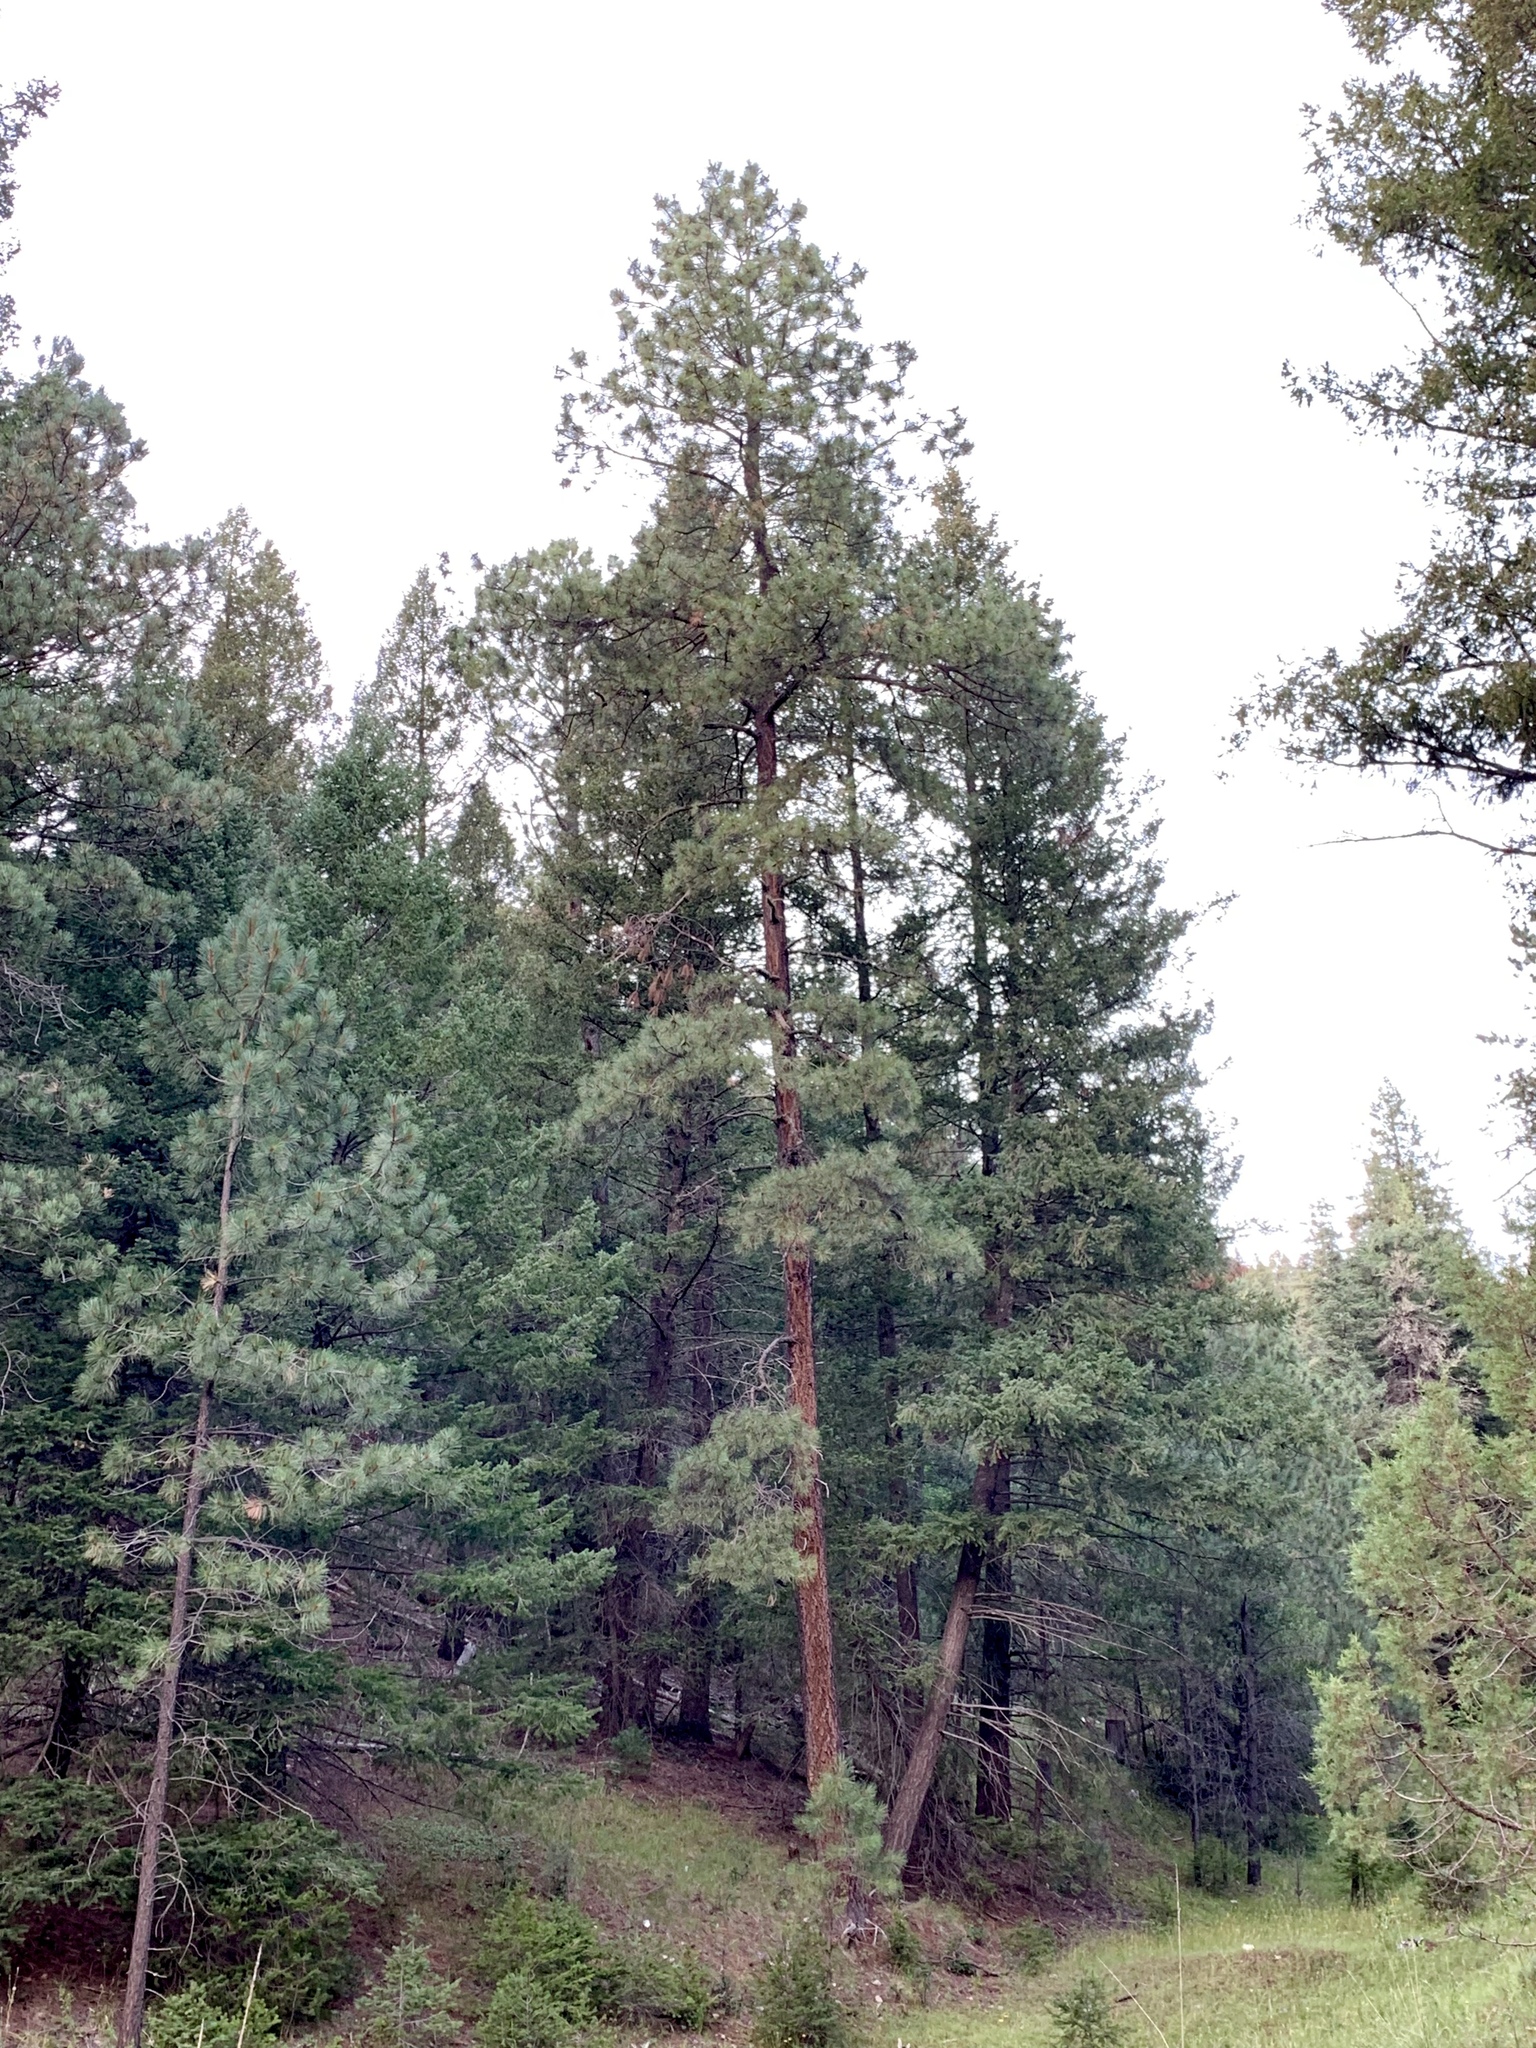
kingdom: Plantae
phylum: Tracheophyta
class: Pinopsida
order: Pinales
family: Pinaceae
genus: Pinus
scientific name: Pinus ponderosa
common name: Western yellow-pine
